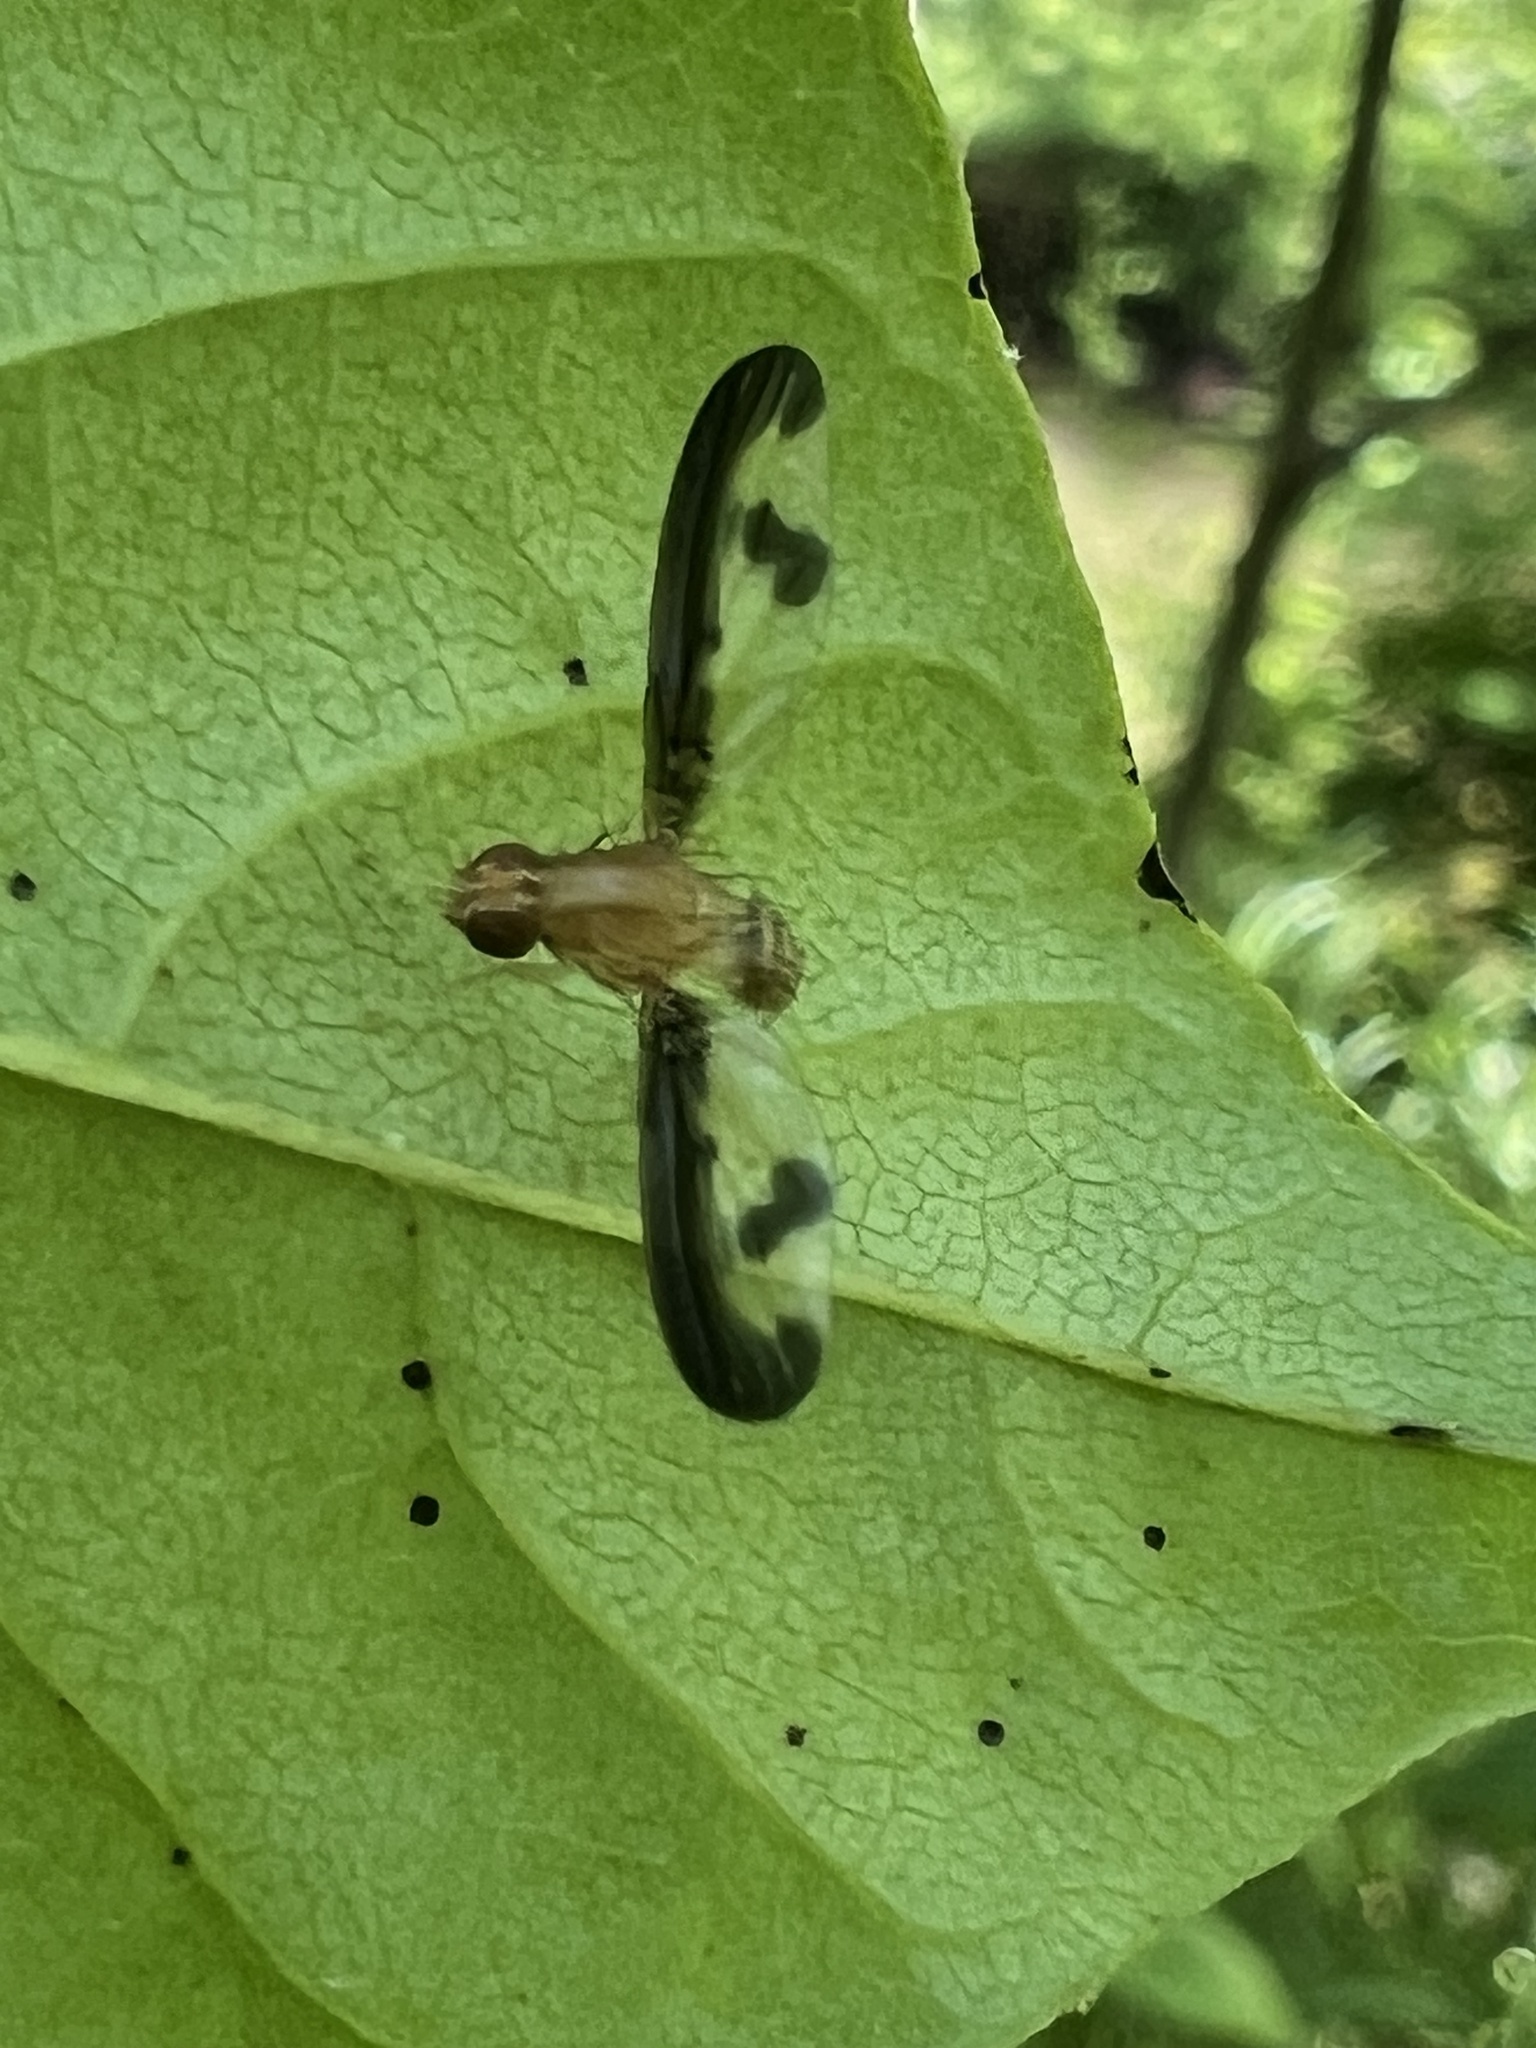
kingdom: Animalia
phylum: Arthropoda
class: Insecta
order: Diptera
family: Pallopteridae
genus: Toxonevra
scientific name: Toxonevra superba
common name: Antlered flutter fly
